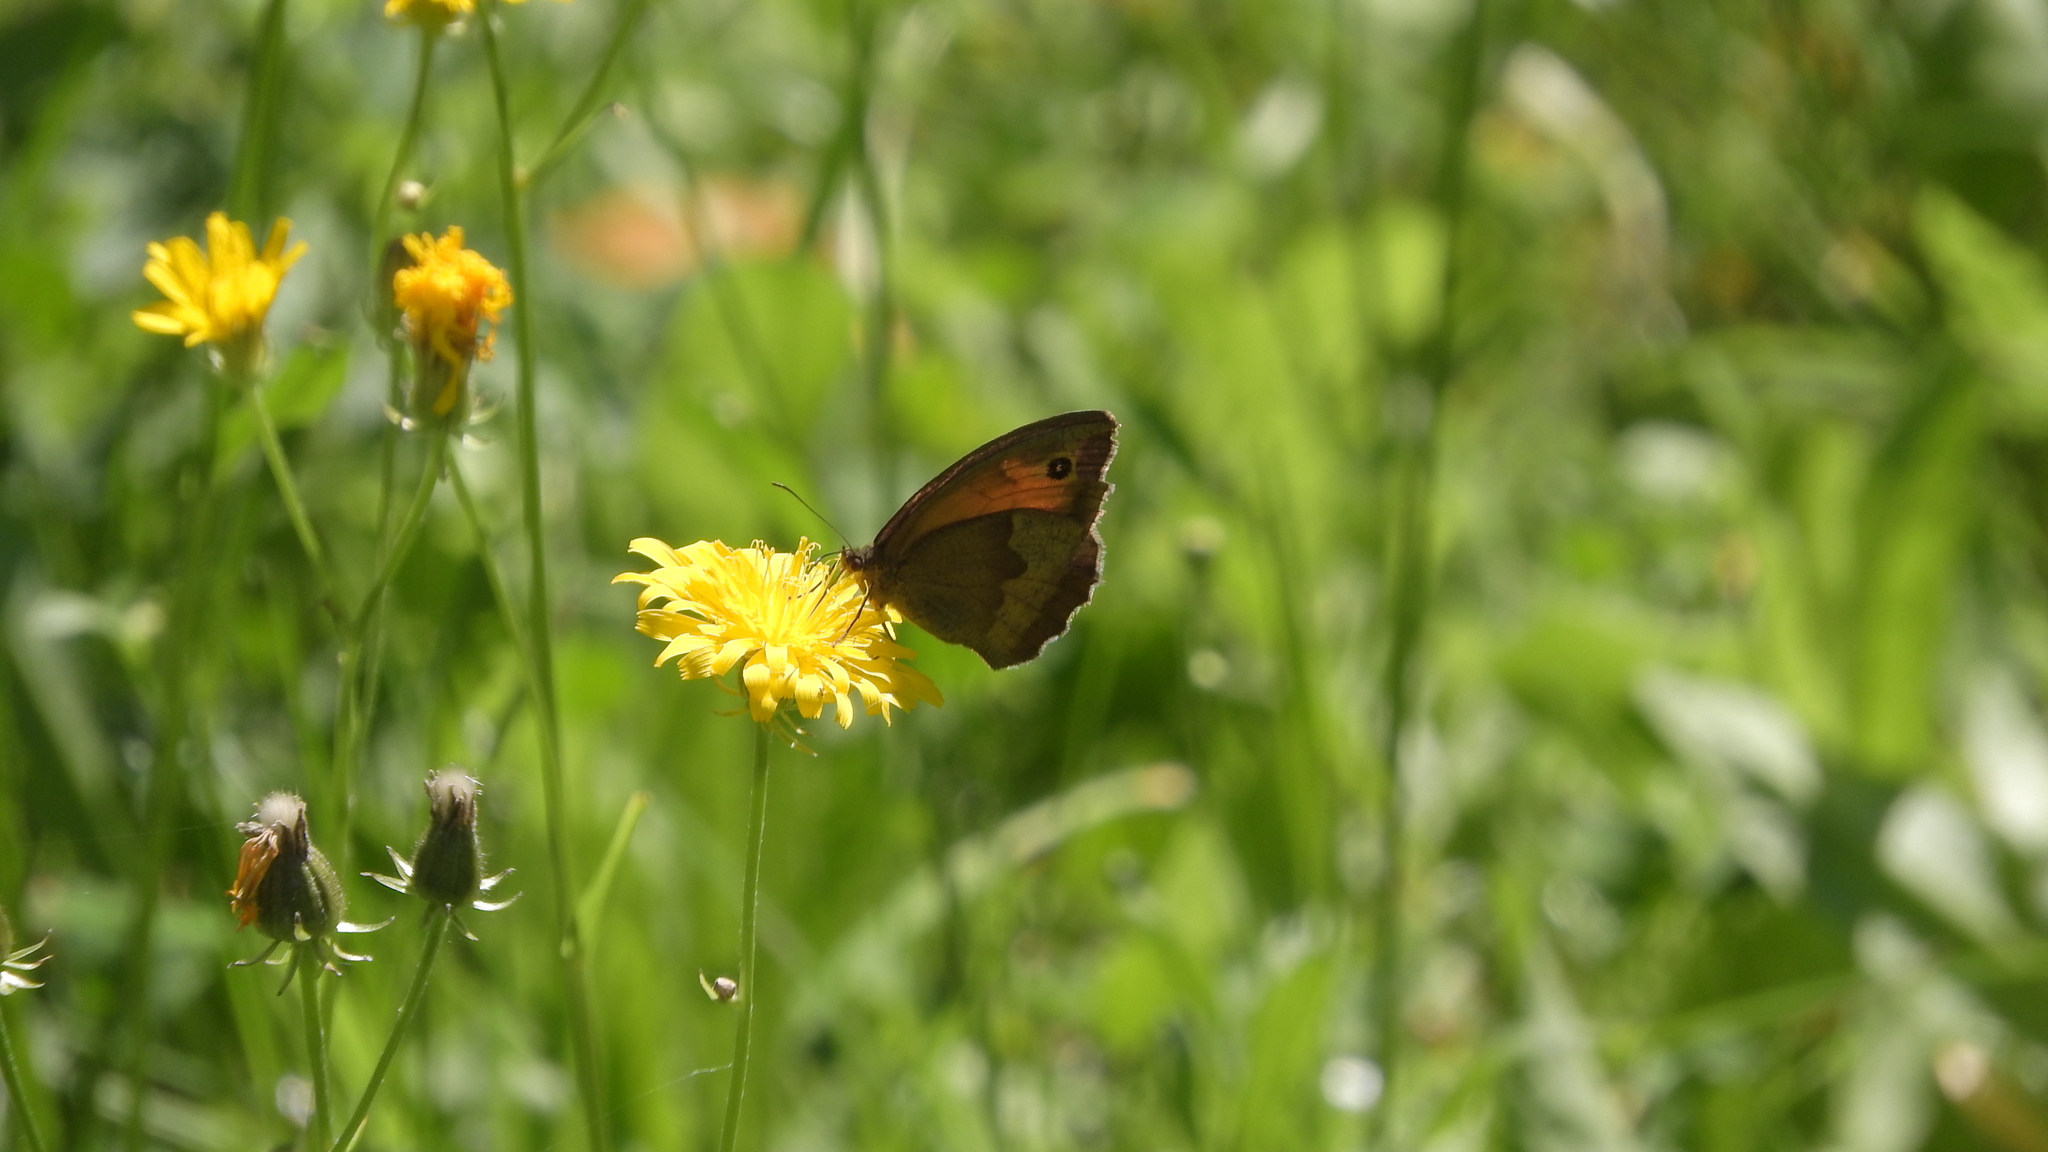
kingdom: Animalia
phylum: Arthropoda
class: Insecta
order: Lepidoptera
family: Nymphalidae
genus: Maniola
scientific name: Maniola jurtina
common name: Meadow brown
